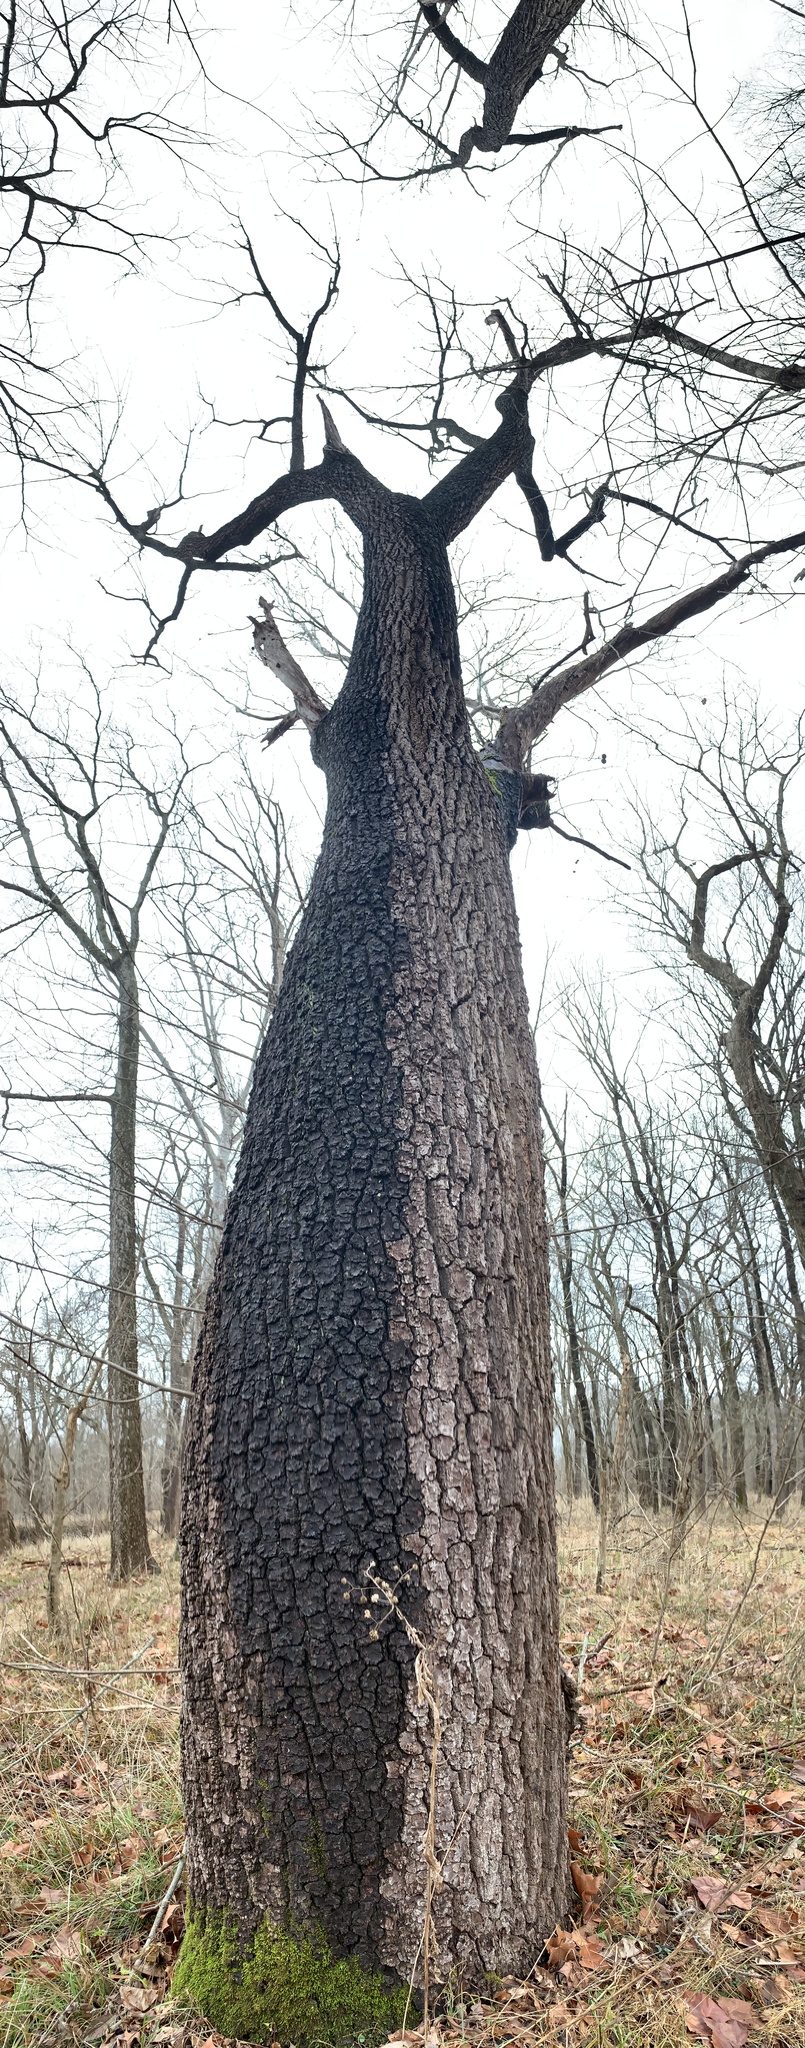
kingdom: Plantae
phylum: Tracheophyta
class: Magnoliopsida
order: Fagales
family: Juglandaceae
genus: Juglans
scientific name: Juglans nigra
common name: Black walnut
